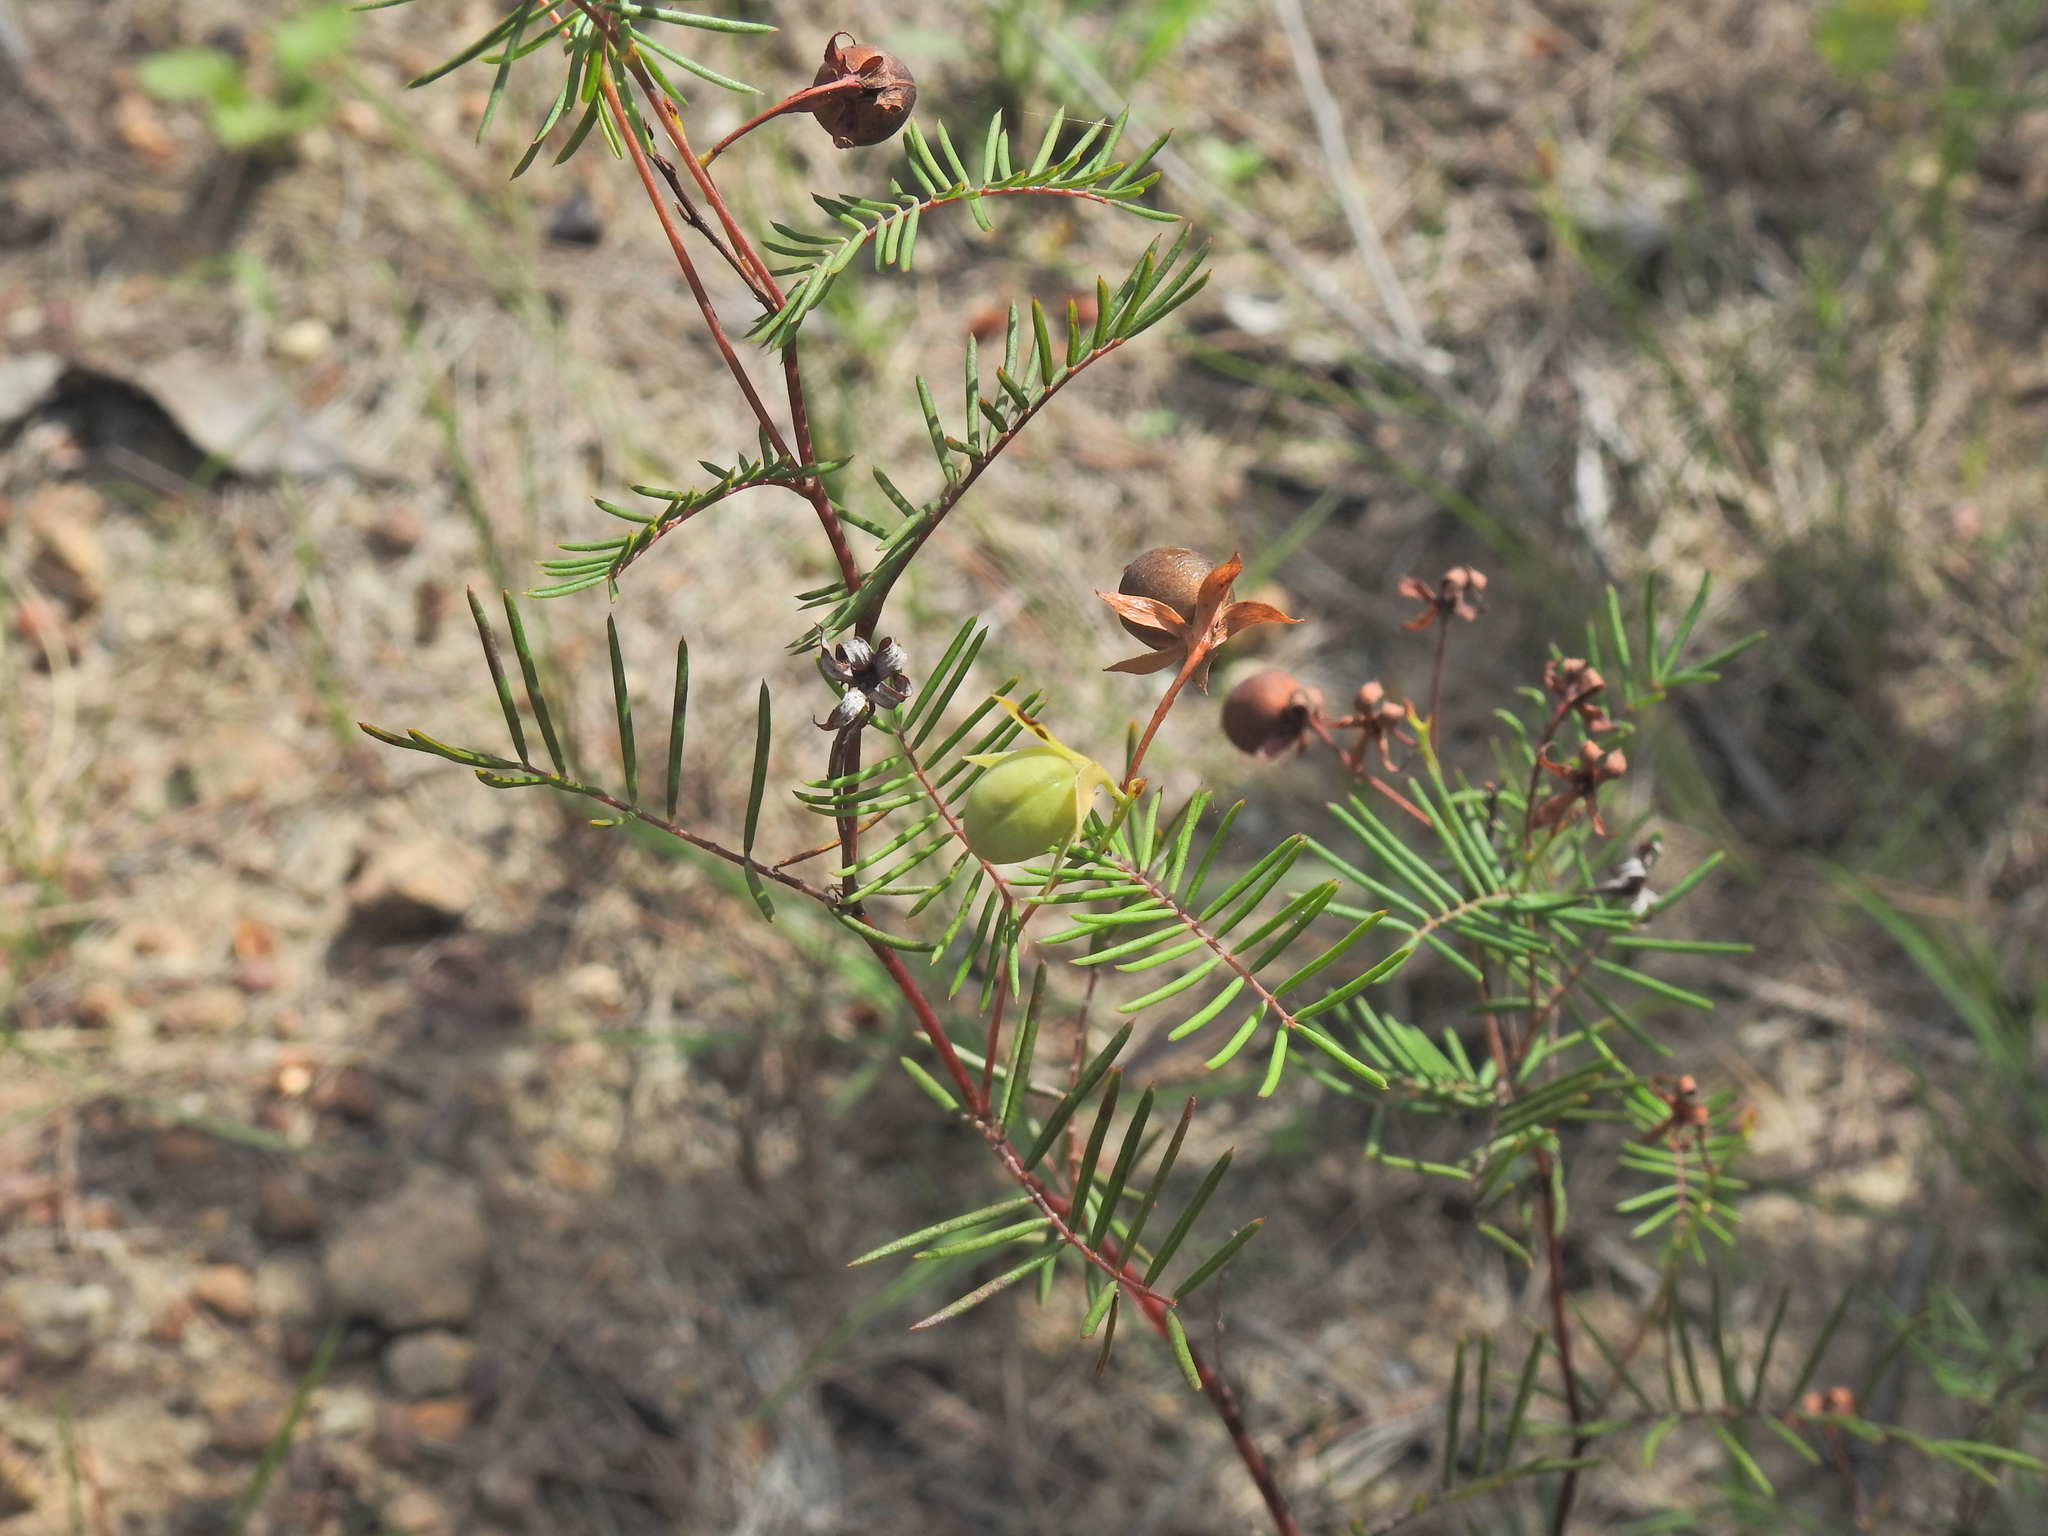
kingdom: Plantae
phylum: Tracheophyta
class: Magnoliopsida
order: Fabales
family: Fabaceae
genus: Gompholobium
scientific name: Gompholobium pinnatum
